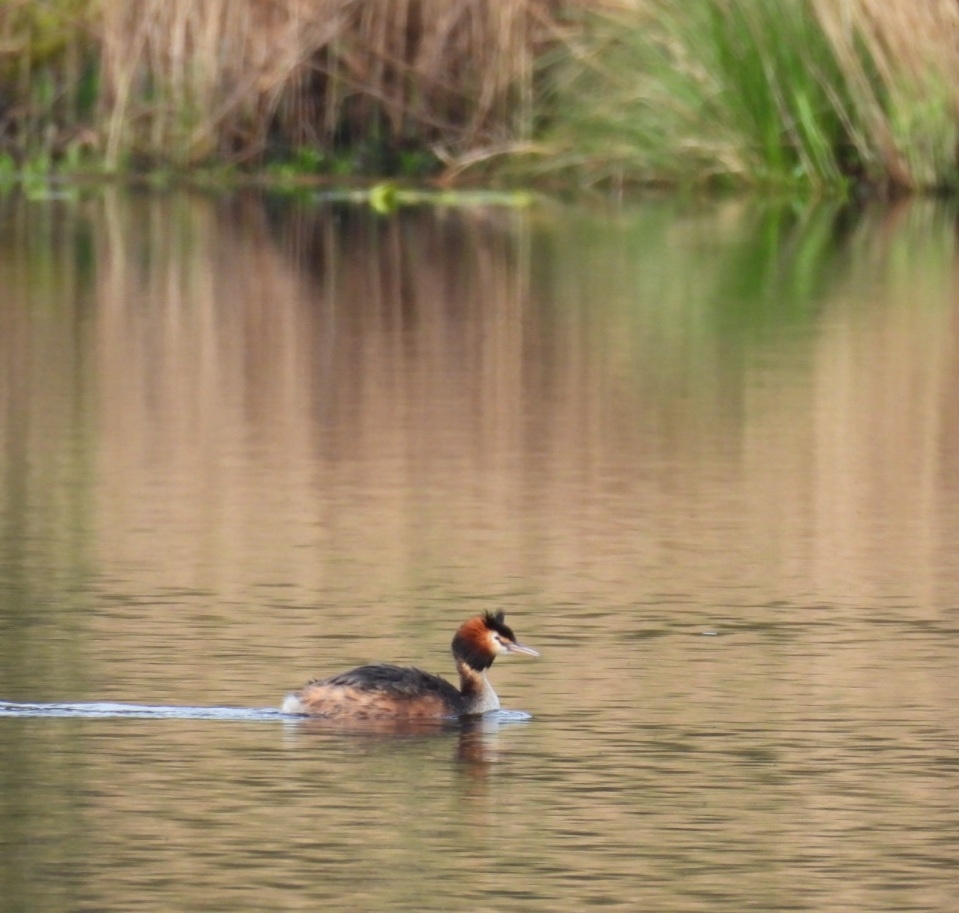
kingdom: Animalia
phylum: Chordata
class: Aves
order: Podicipediformes
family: Podicipedidae
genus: Podiceps
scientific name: Podiceps cristatus
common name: Great crested grebe
